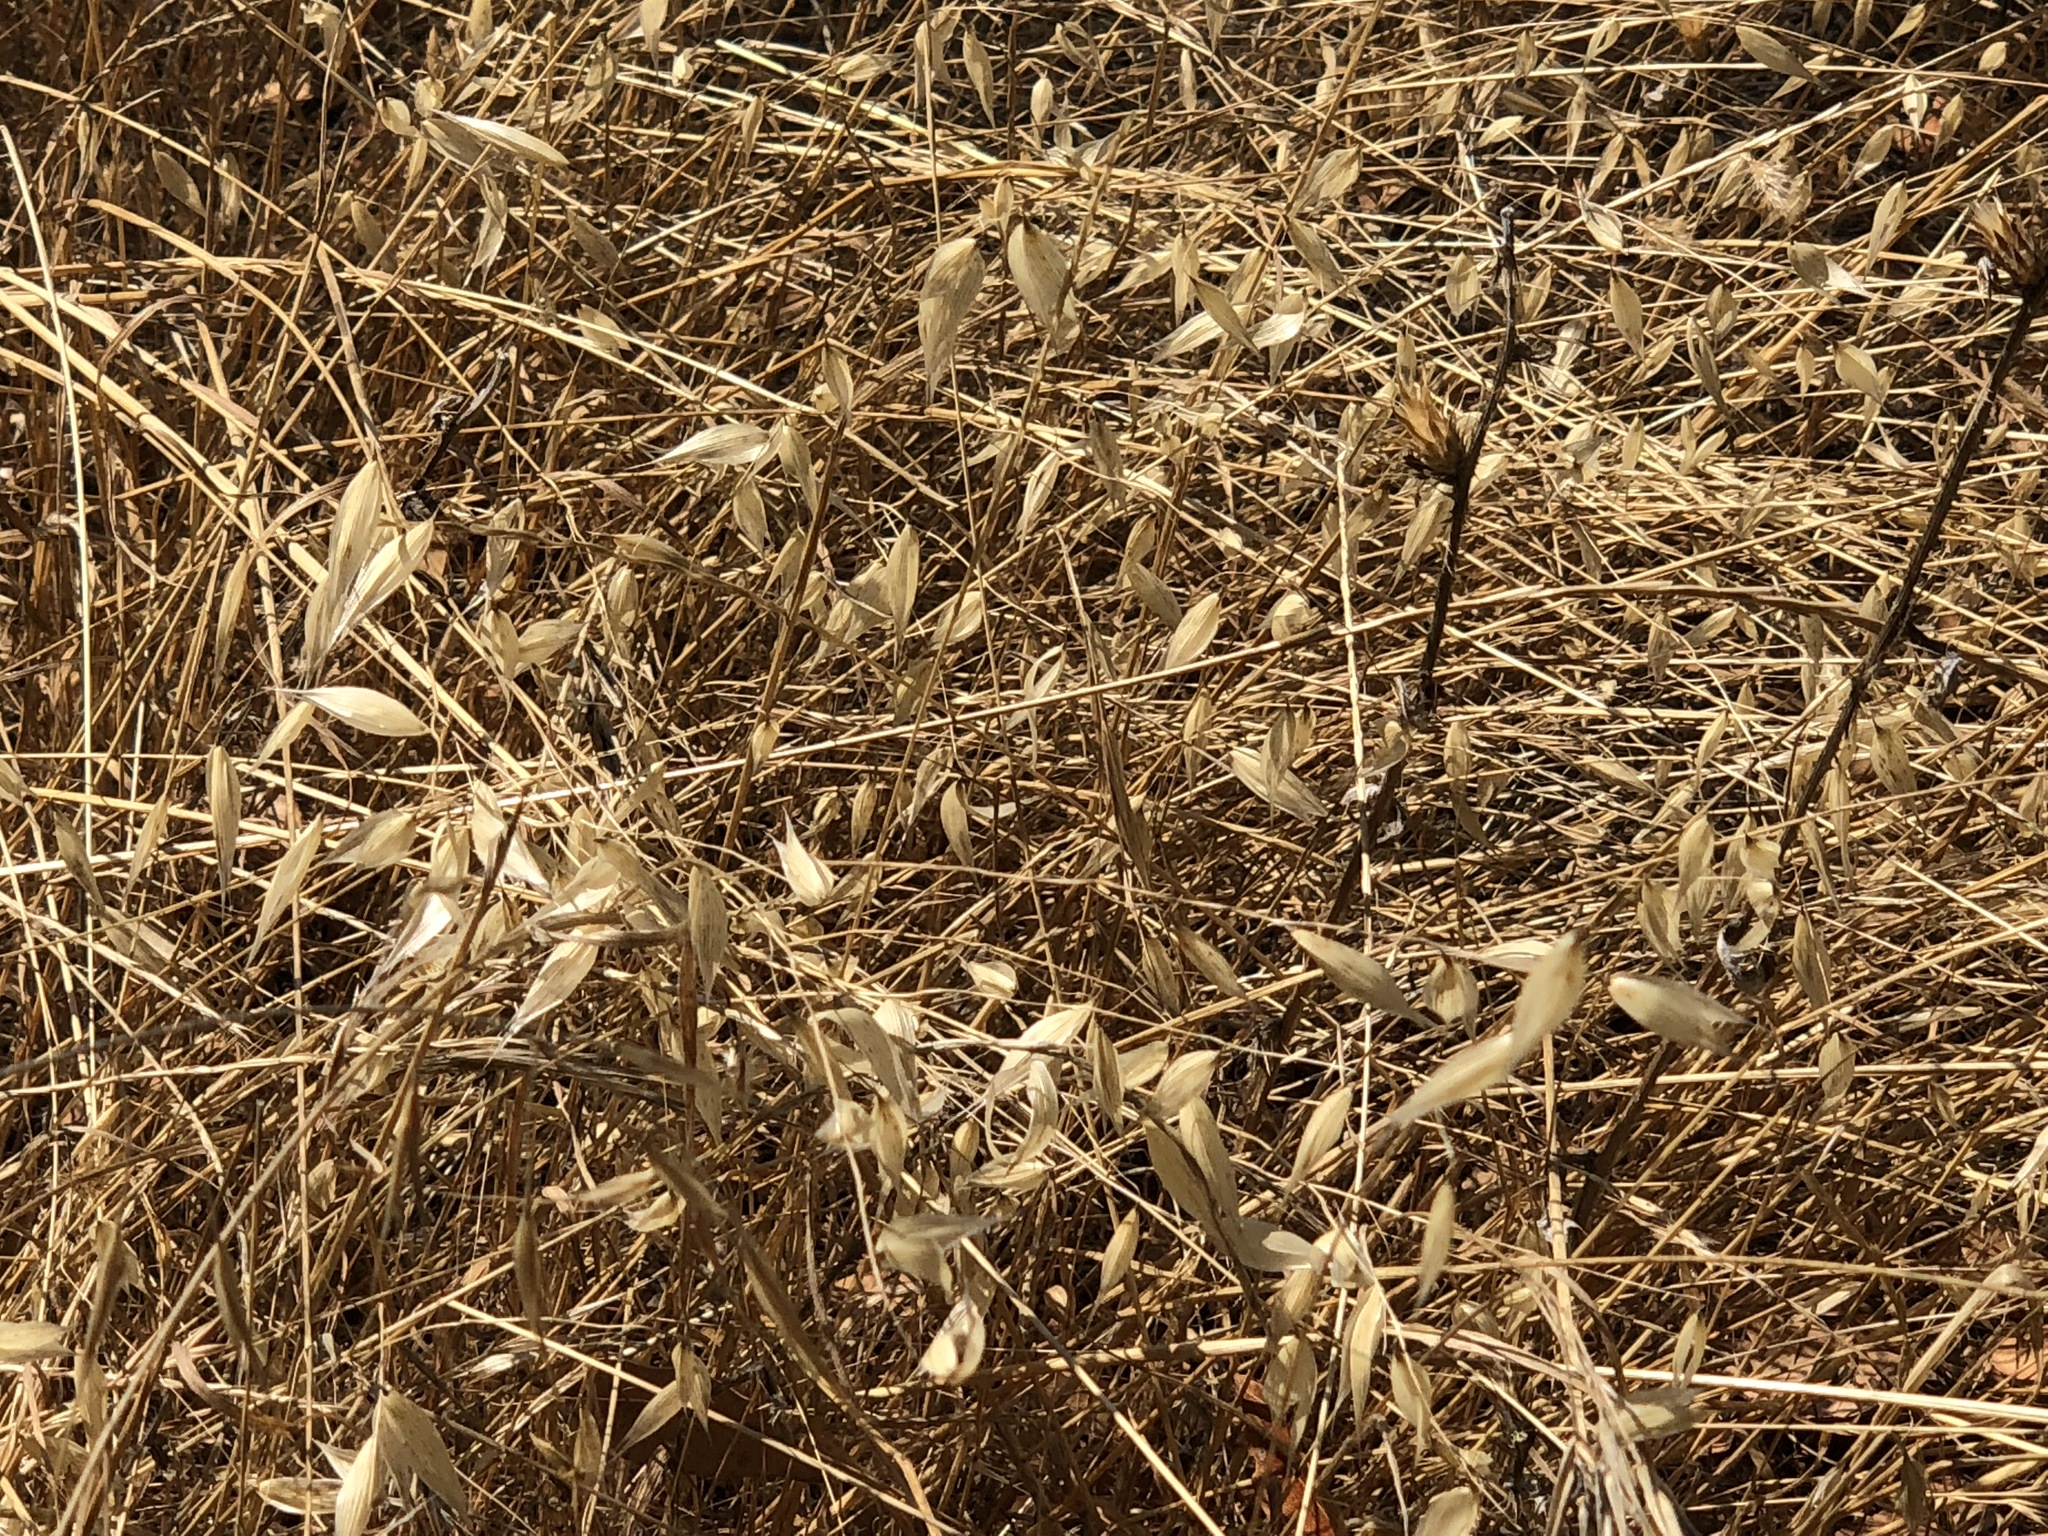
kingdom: Plantae
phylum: Tracheophyta
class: Liliopsida
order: Poales
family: Poaceae
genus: Avena
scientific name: Avena fatua
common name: Wild oat
